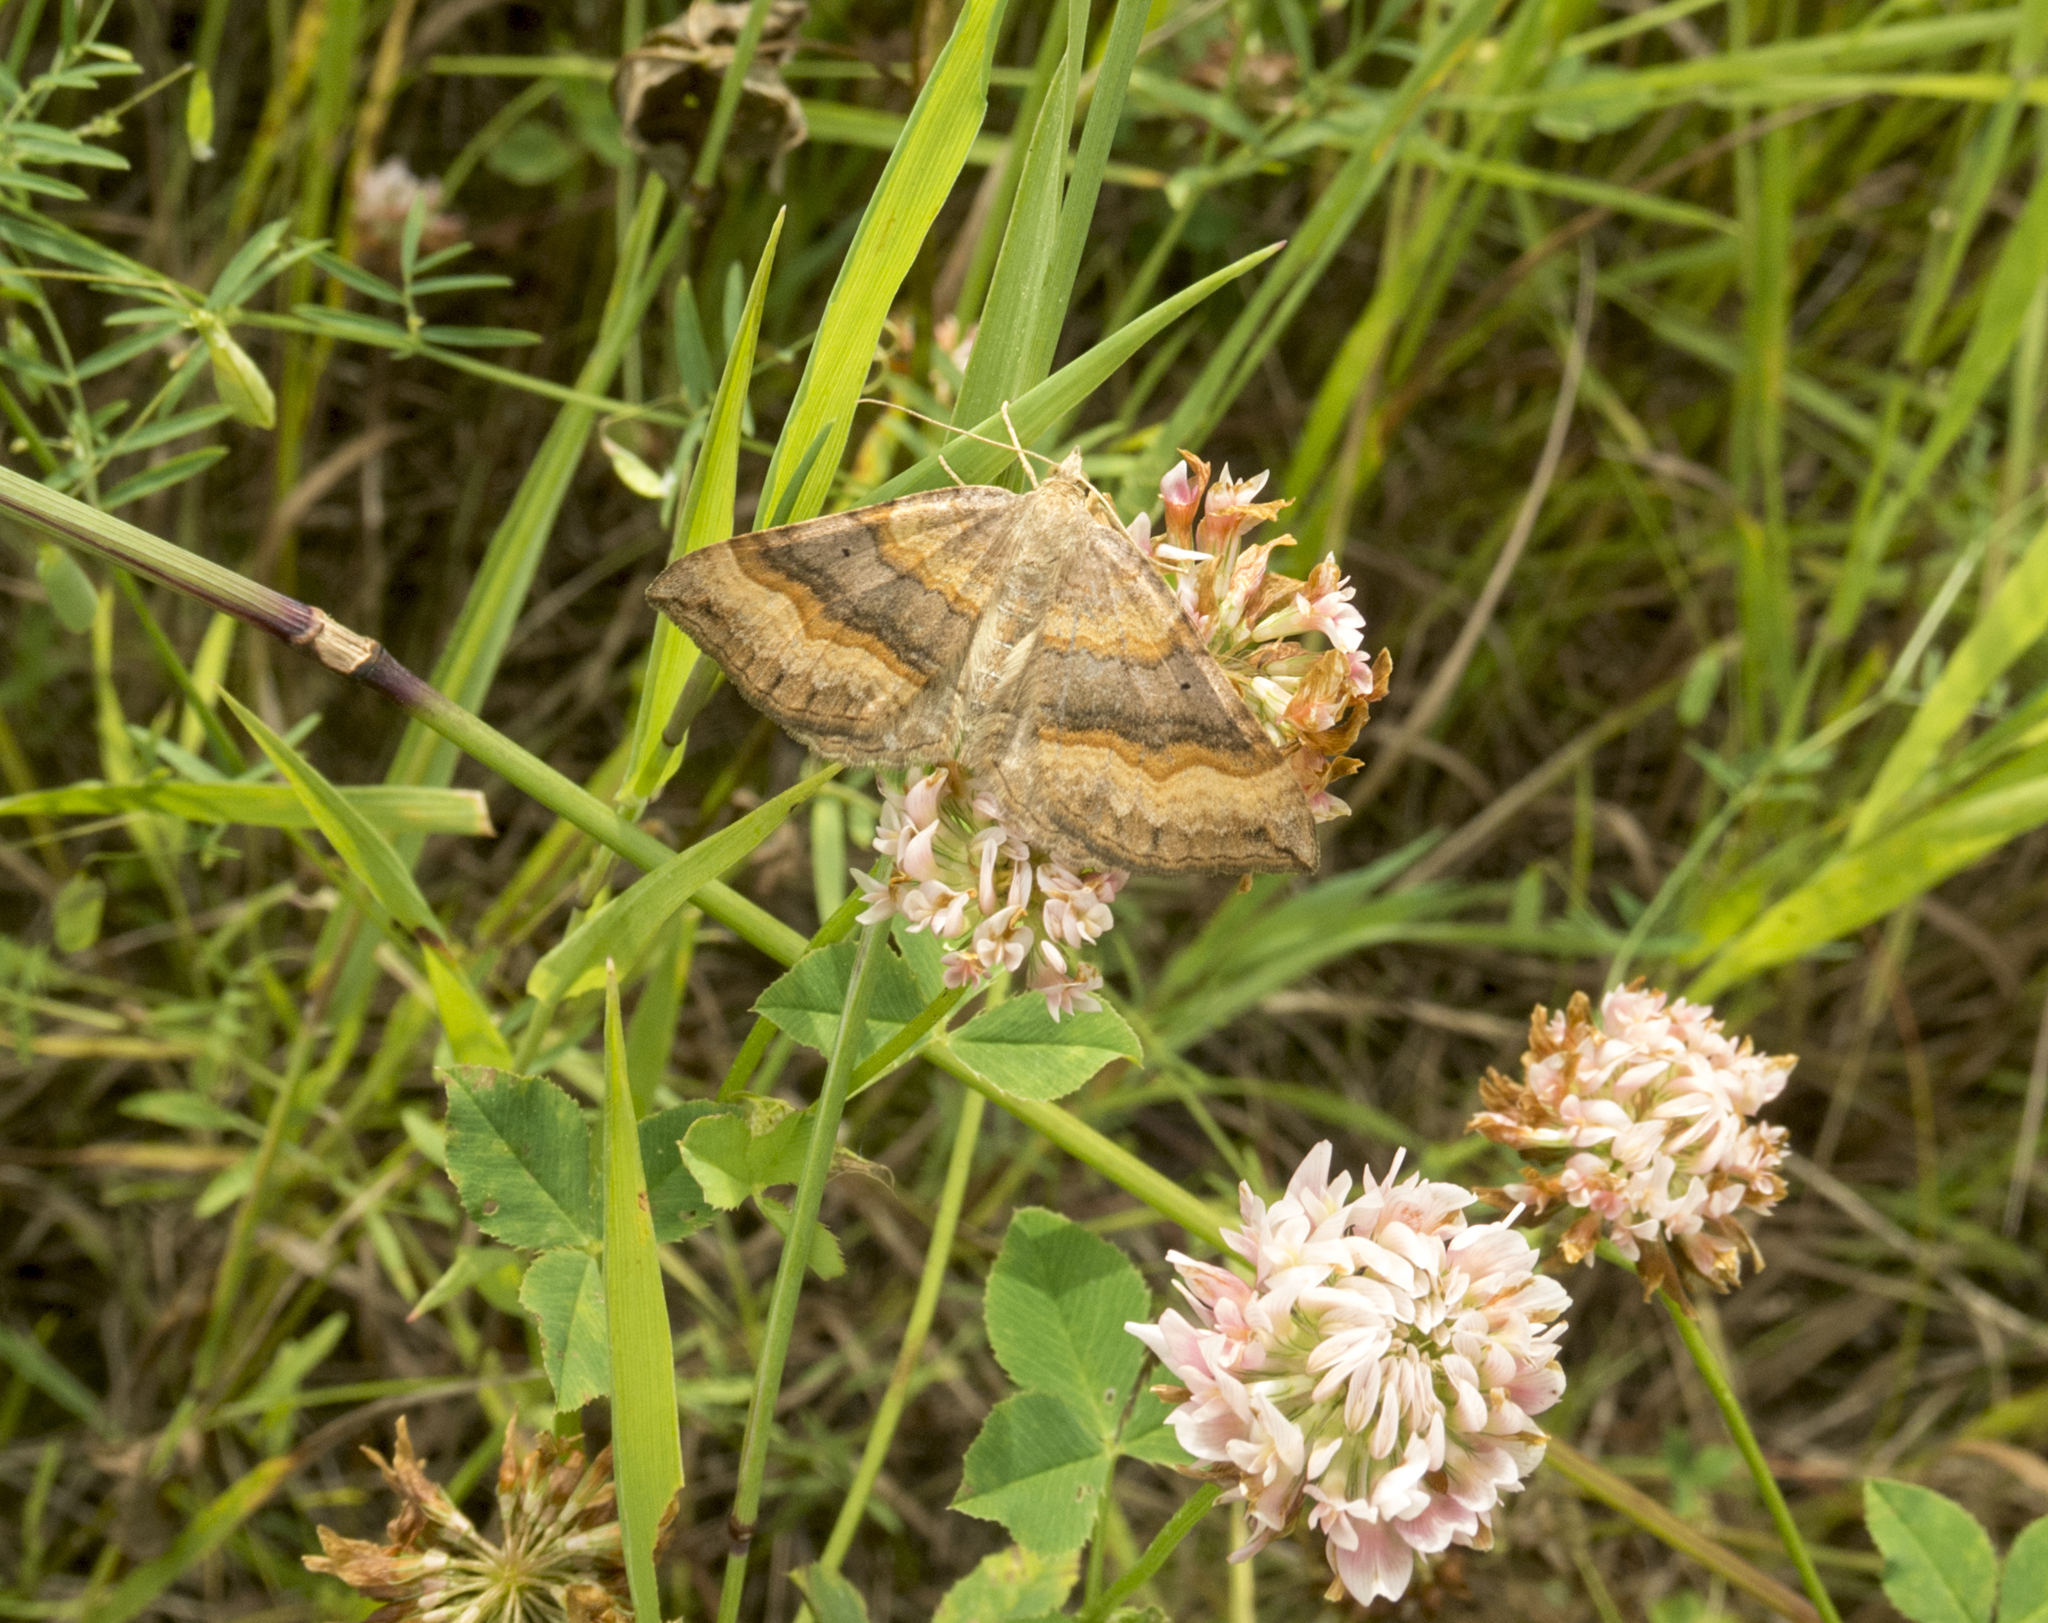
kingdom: Animalia
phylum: Arthropoda
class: Insecta
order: Lepidoptera
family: Geometridae
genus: Scotopteryx
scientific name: Scotopteryx chenopodiata
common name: Shaded broad-bar
